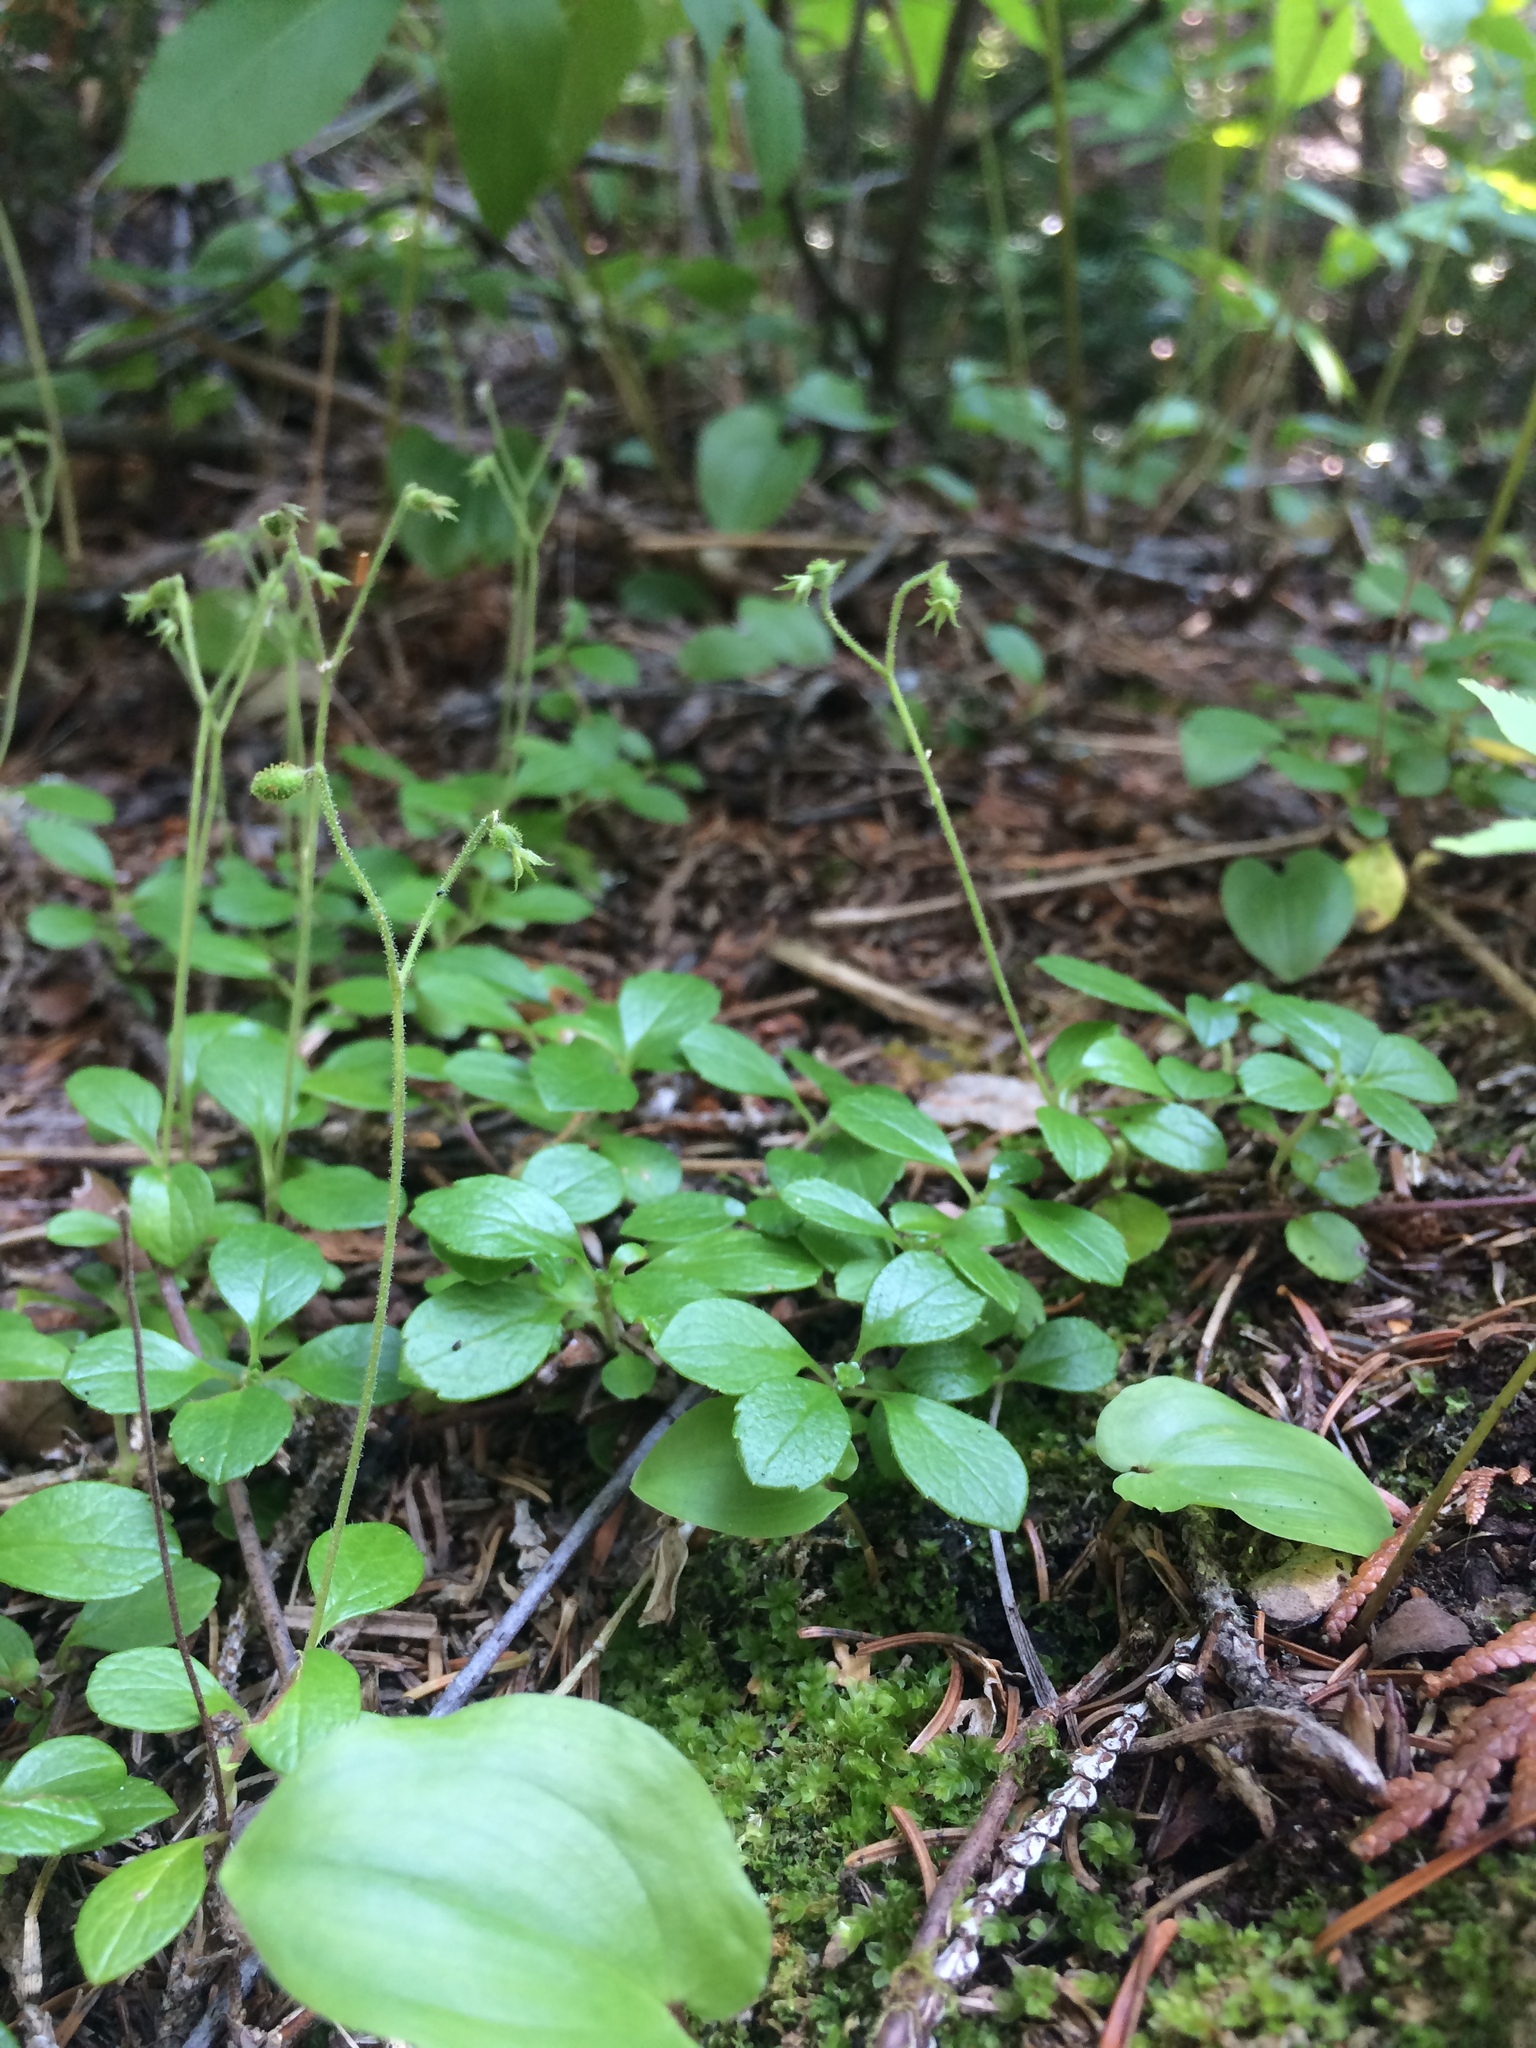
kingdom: Plantae
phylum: Tracheophyta
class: Magnoliopsida
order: Dipsacales
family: Caprifoliaceae
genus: Linnaea
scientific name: Linnaea borealis
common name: Twinflower
